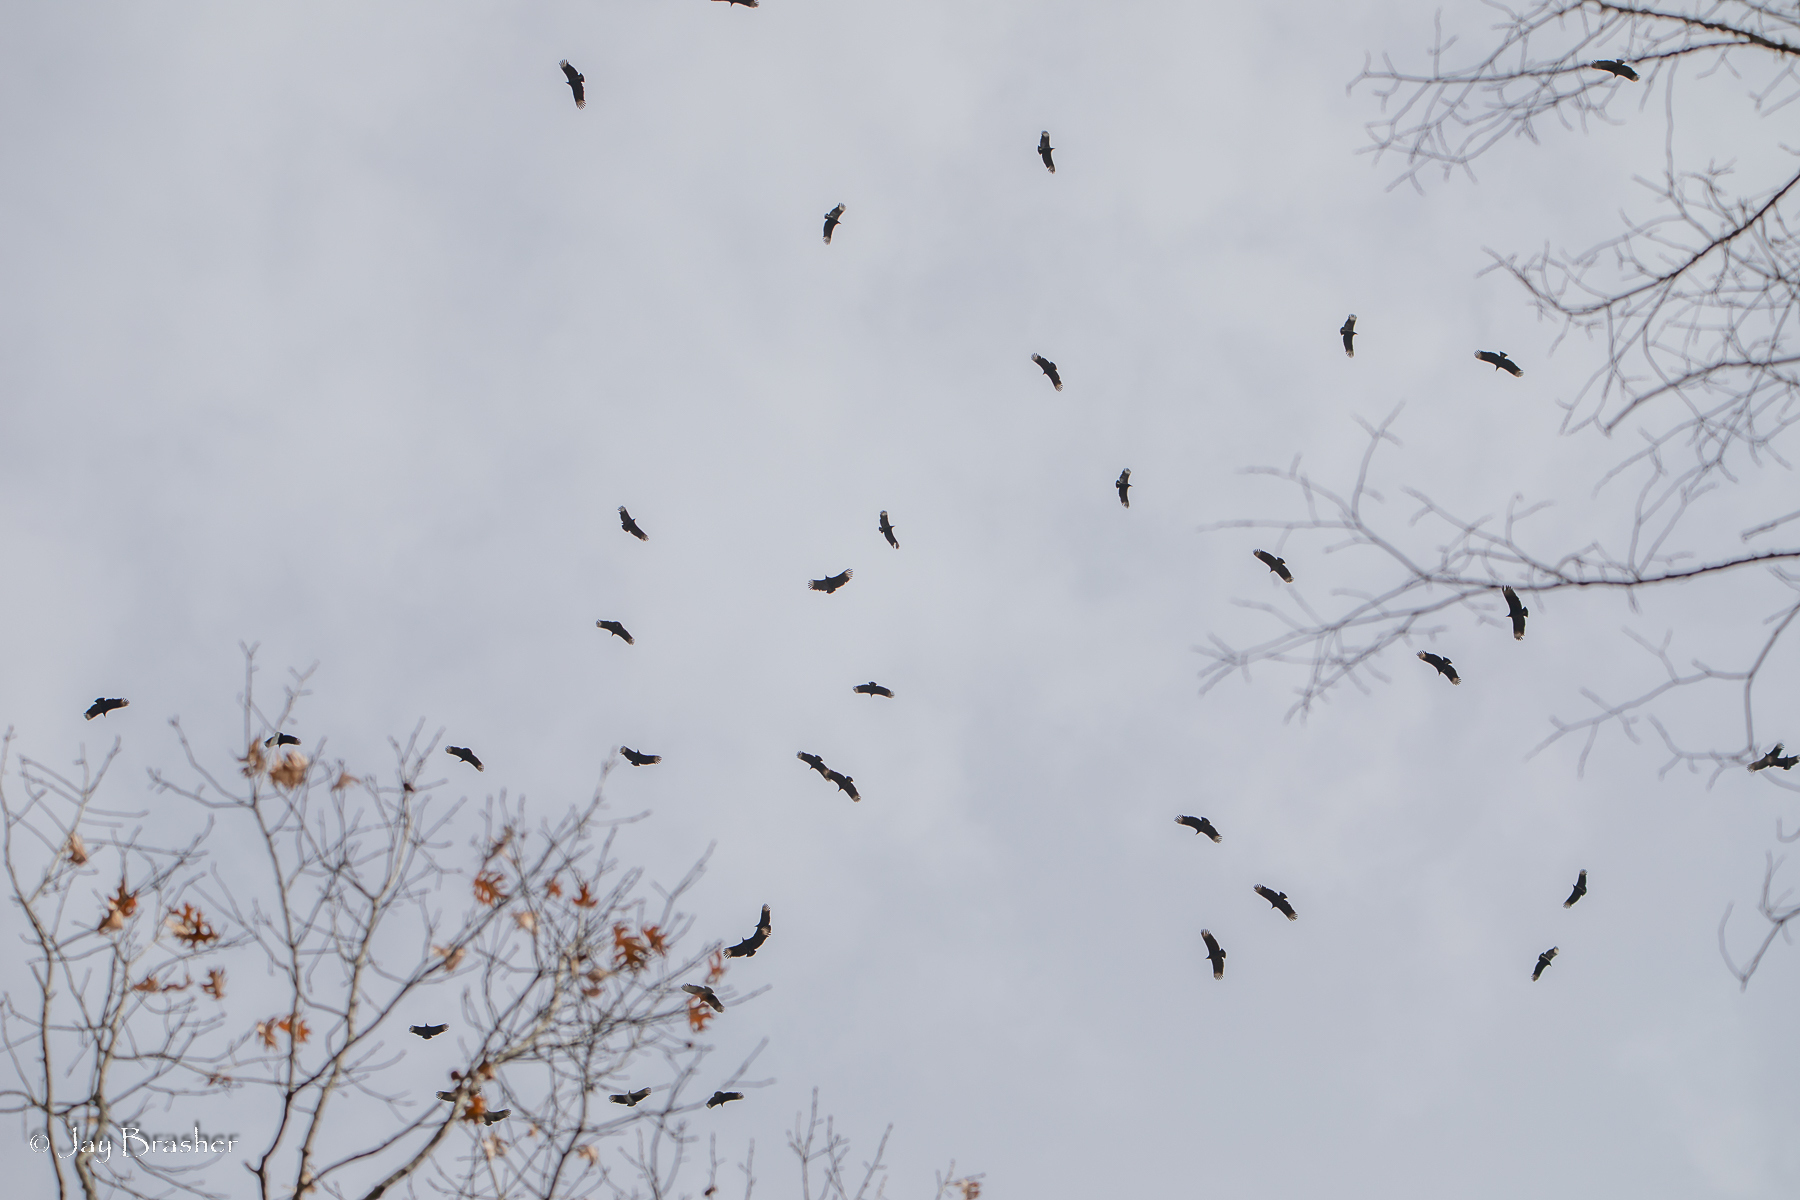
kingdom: Animalia
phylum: Chordata
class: Aves
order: Accipitriformes
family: Cathartidae
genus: Coragyps
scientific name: Coragyps atratus
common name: Black vulture
